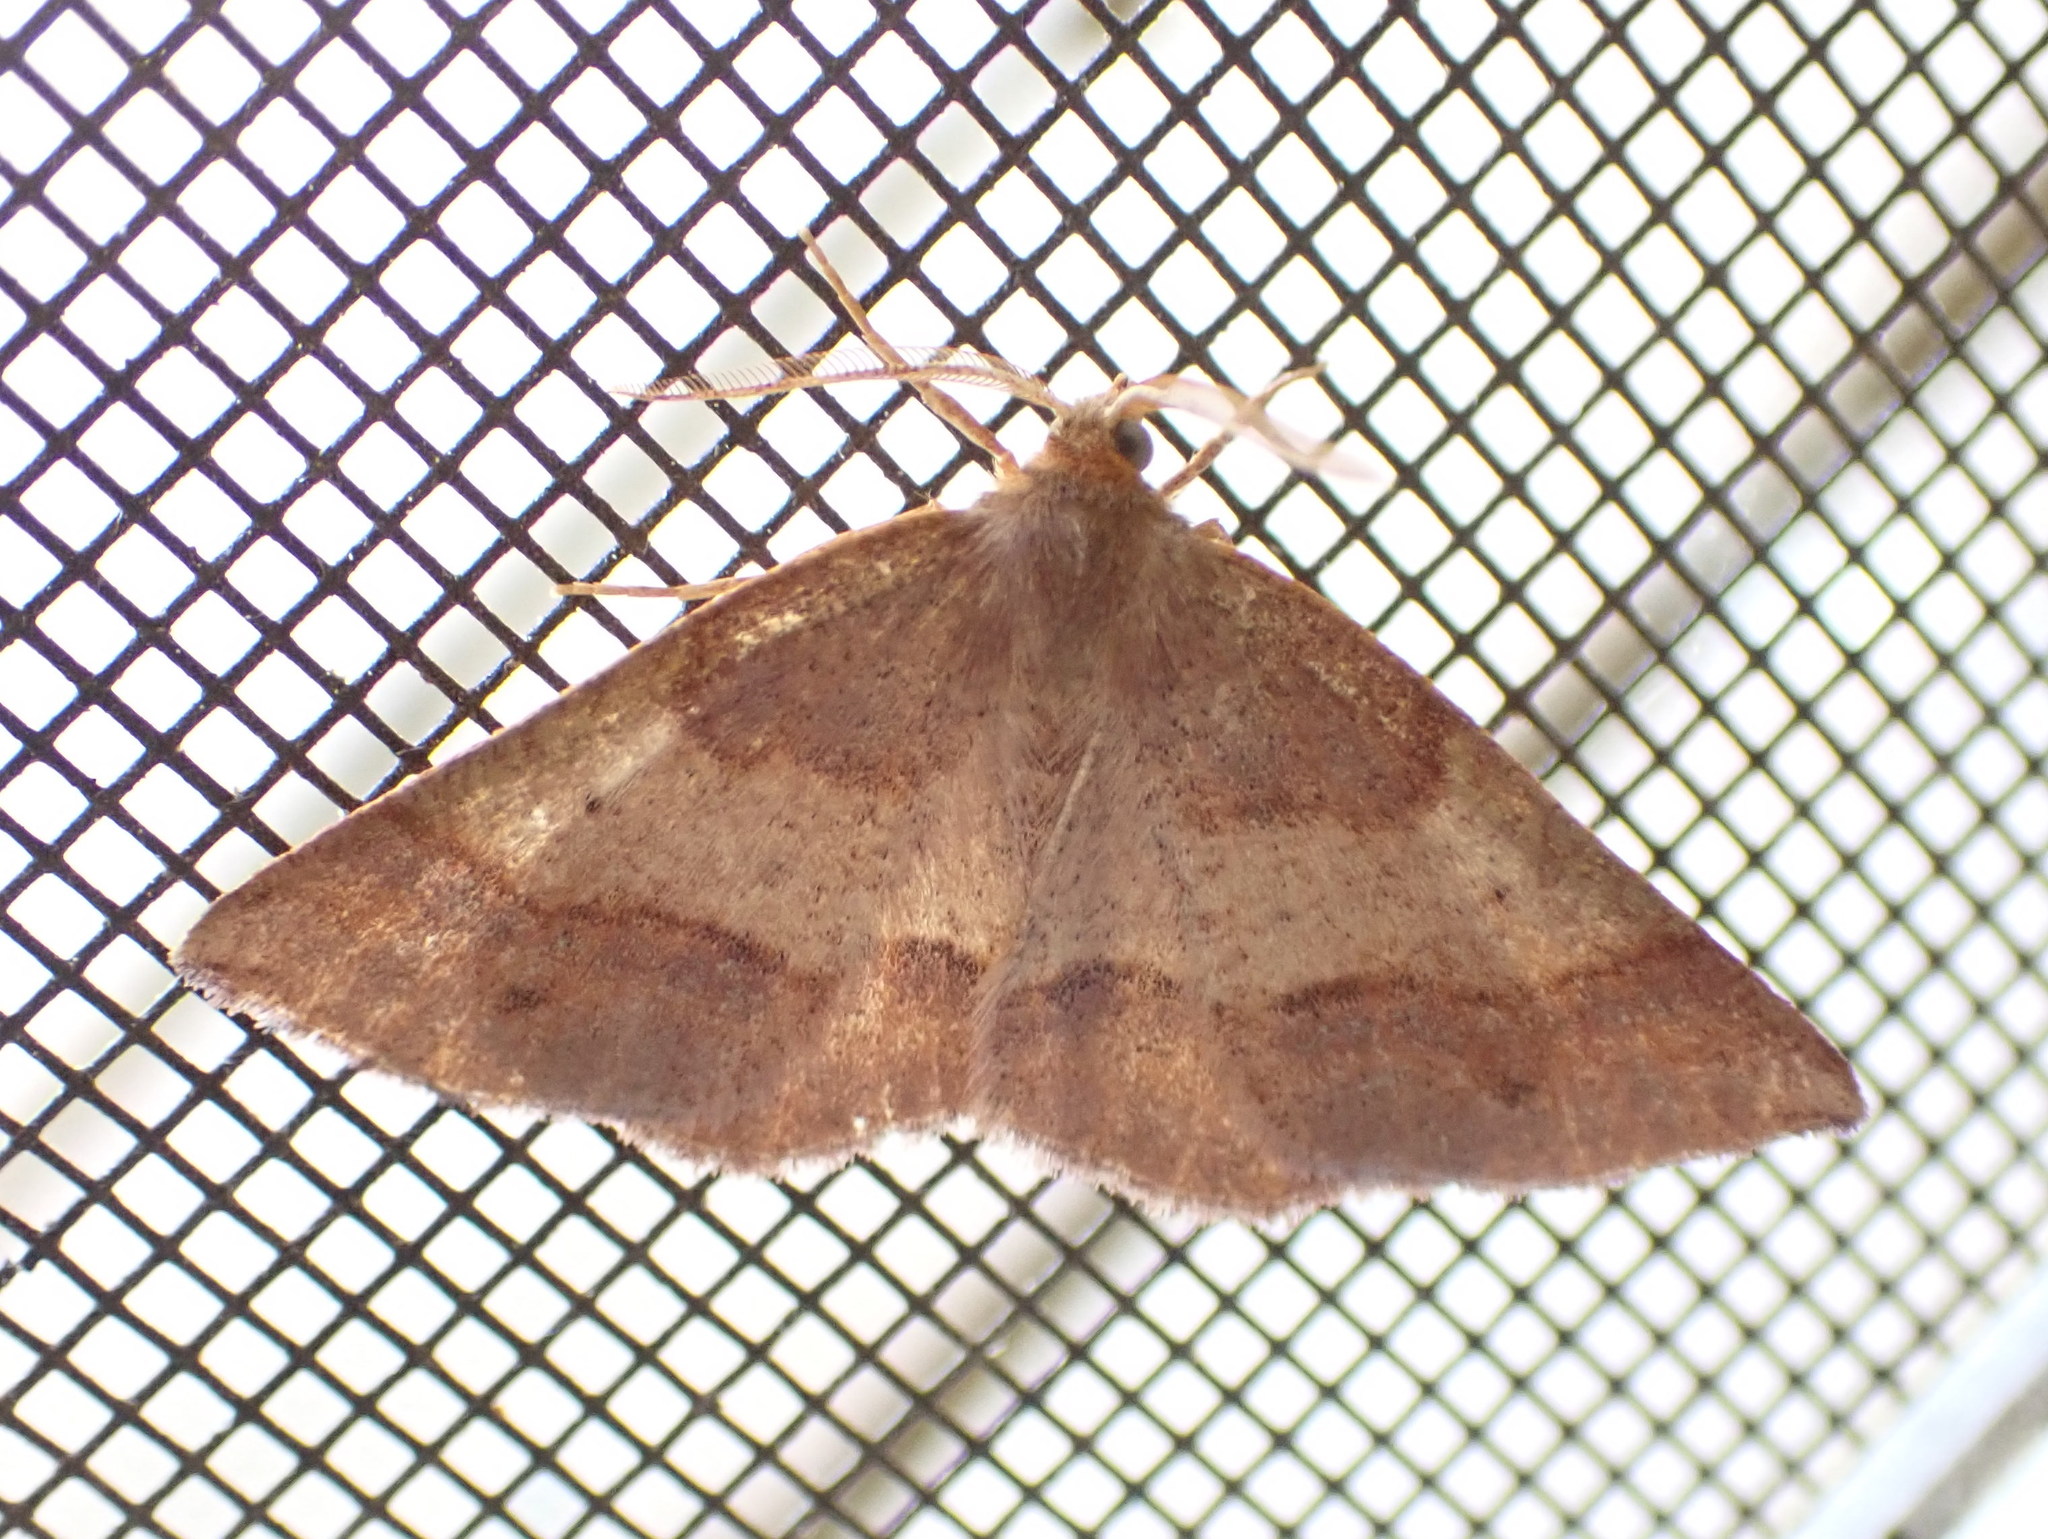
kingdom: Animalia
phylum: Arthropoda
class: Insecta
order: Lepidoptera
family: Geometridae
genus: Metarranthis
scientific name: Metarranthis amyrisaria
